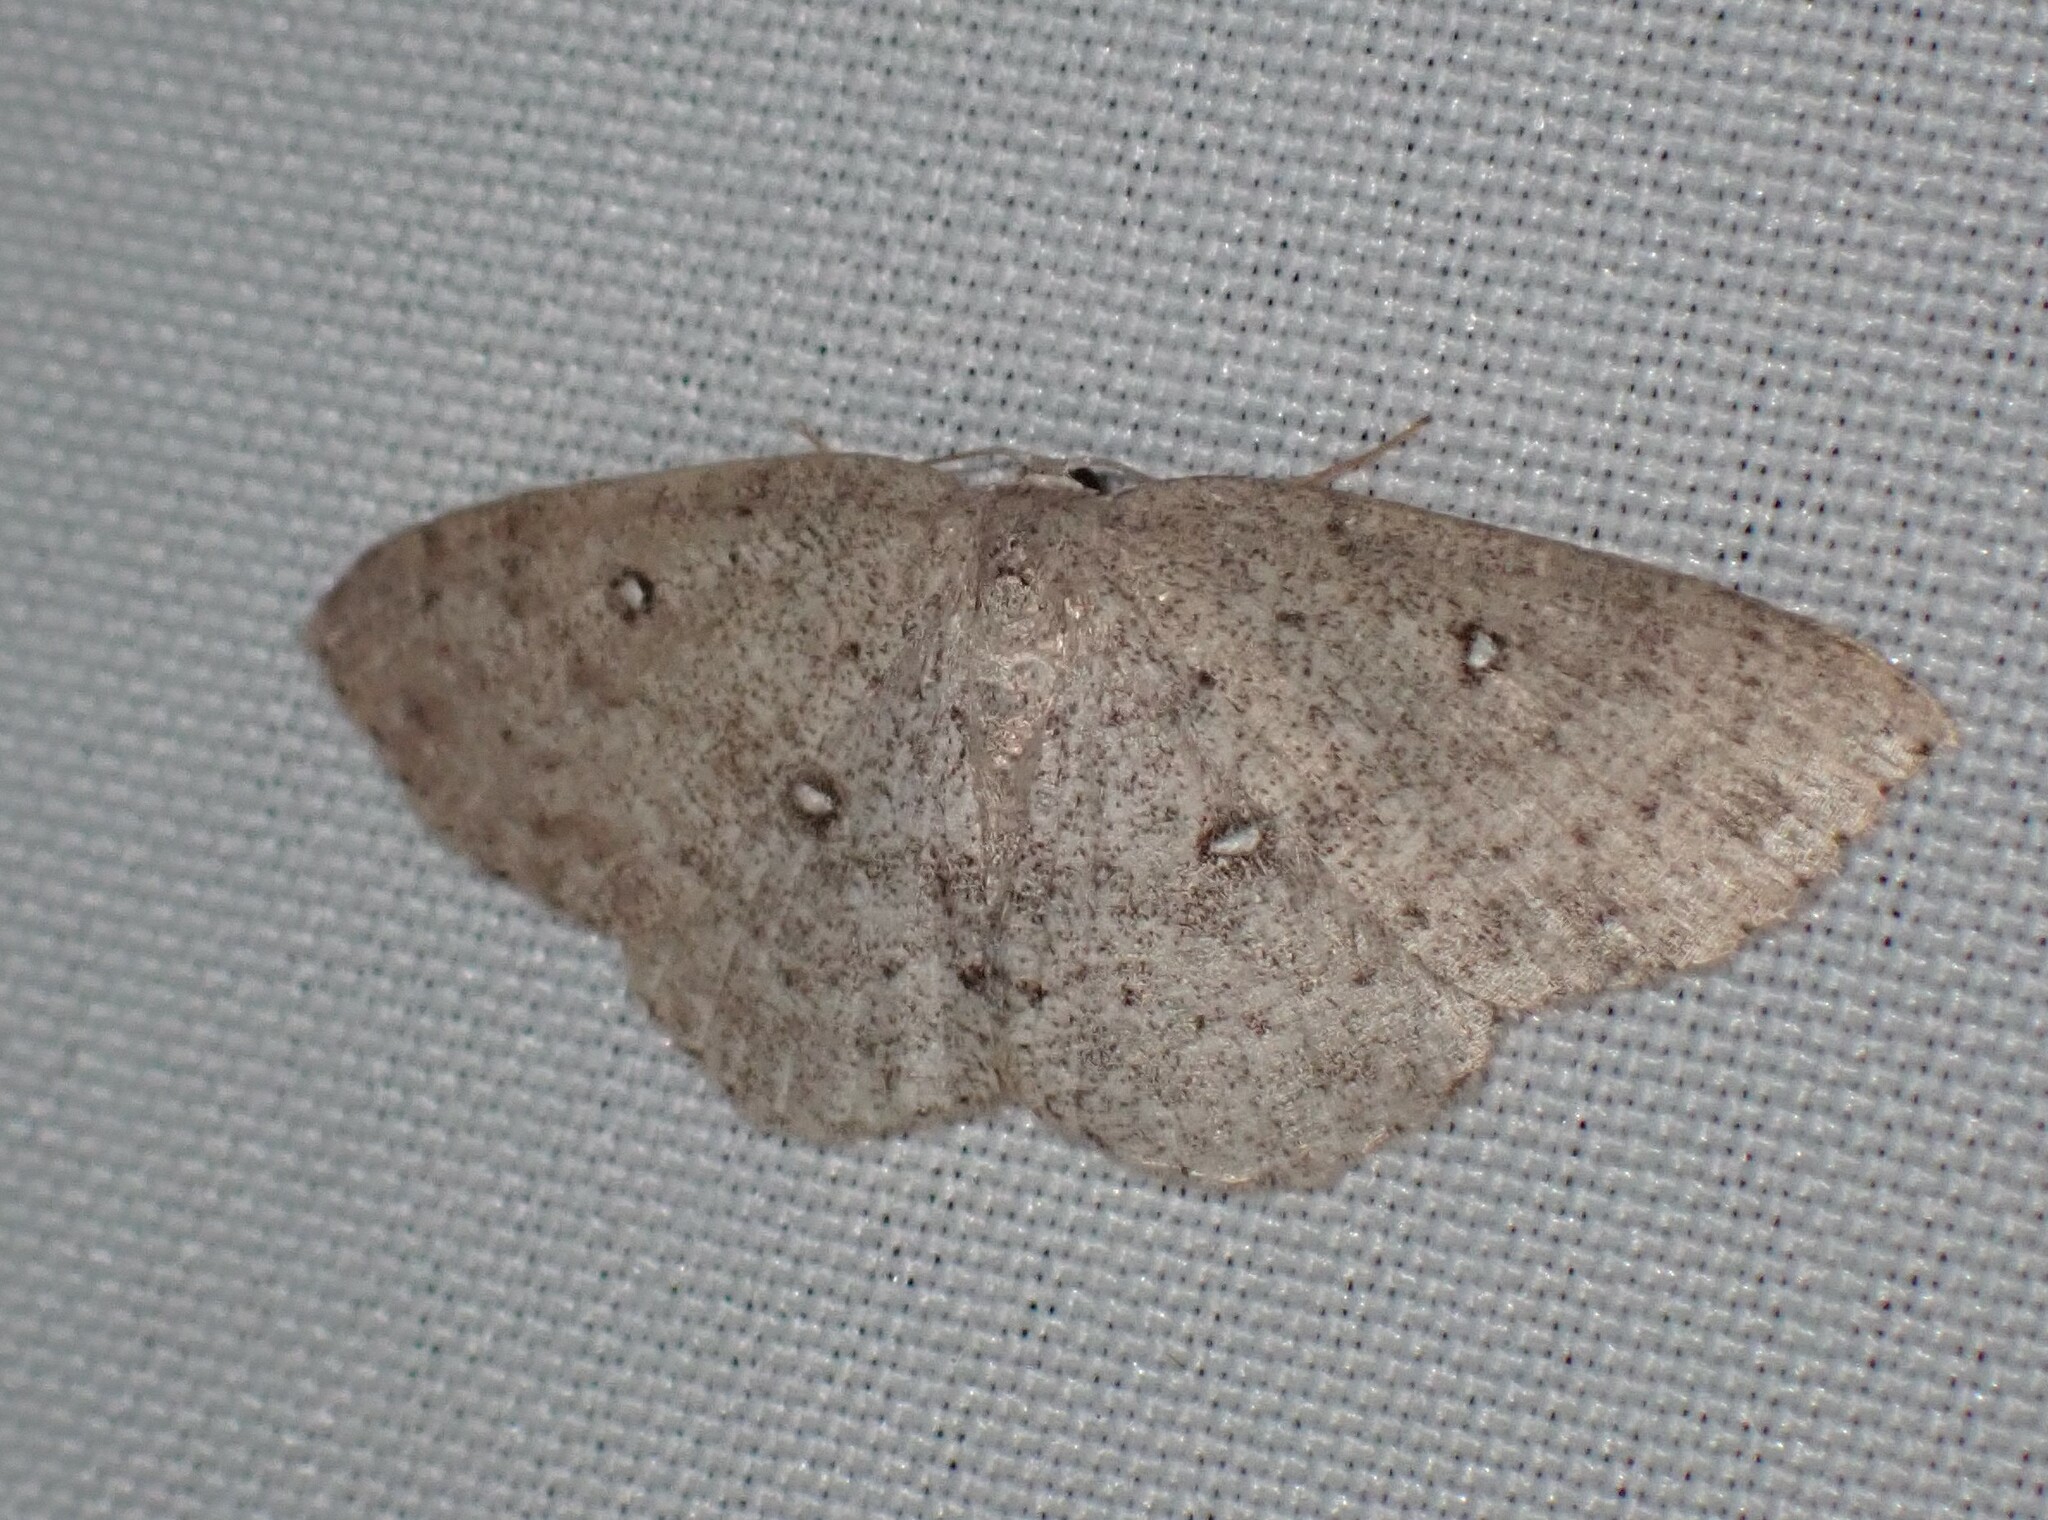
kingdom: Animalia
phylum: Arthropoda
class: Insecta
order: Lepidoptera
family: Geometridae
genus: Cyclophora
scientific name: Cyclophora pendulinaria
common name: Sweet fern geometer
